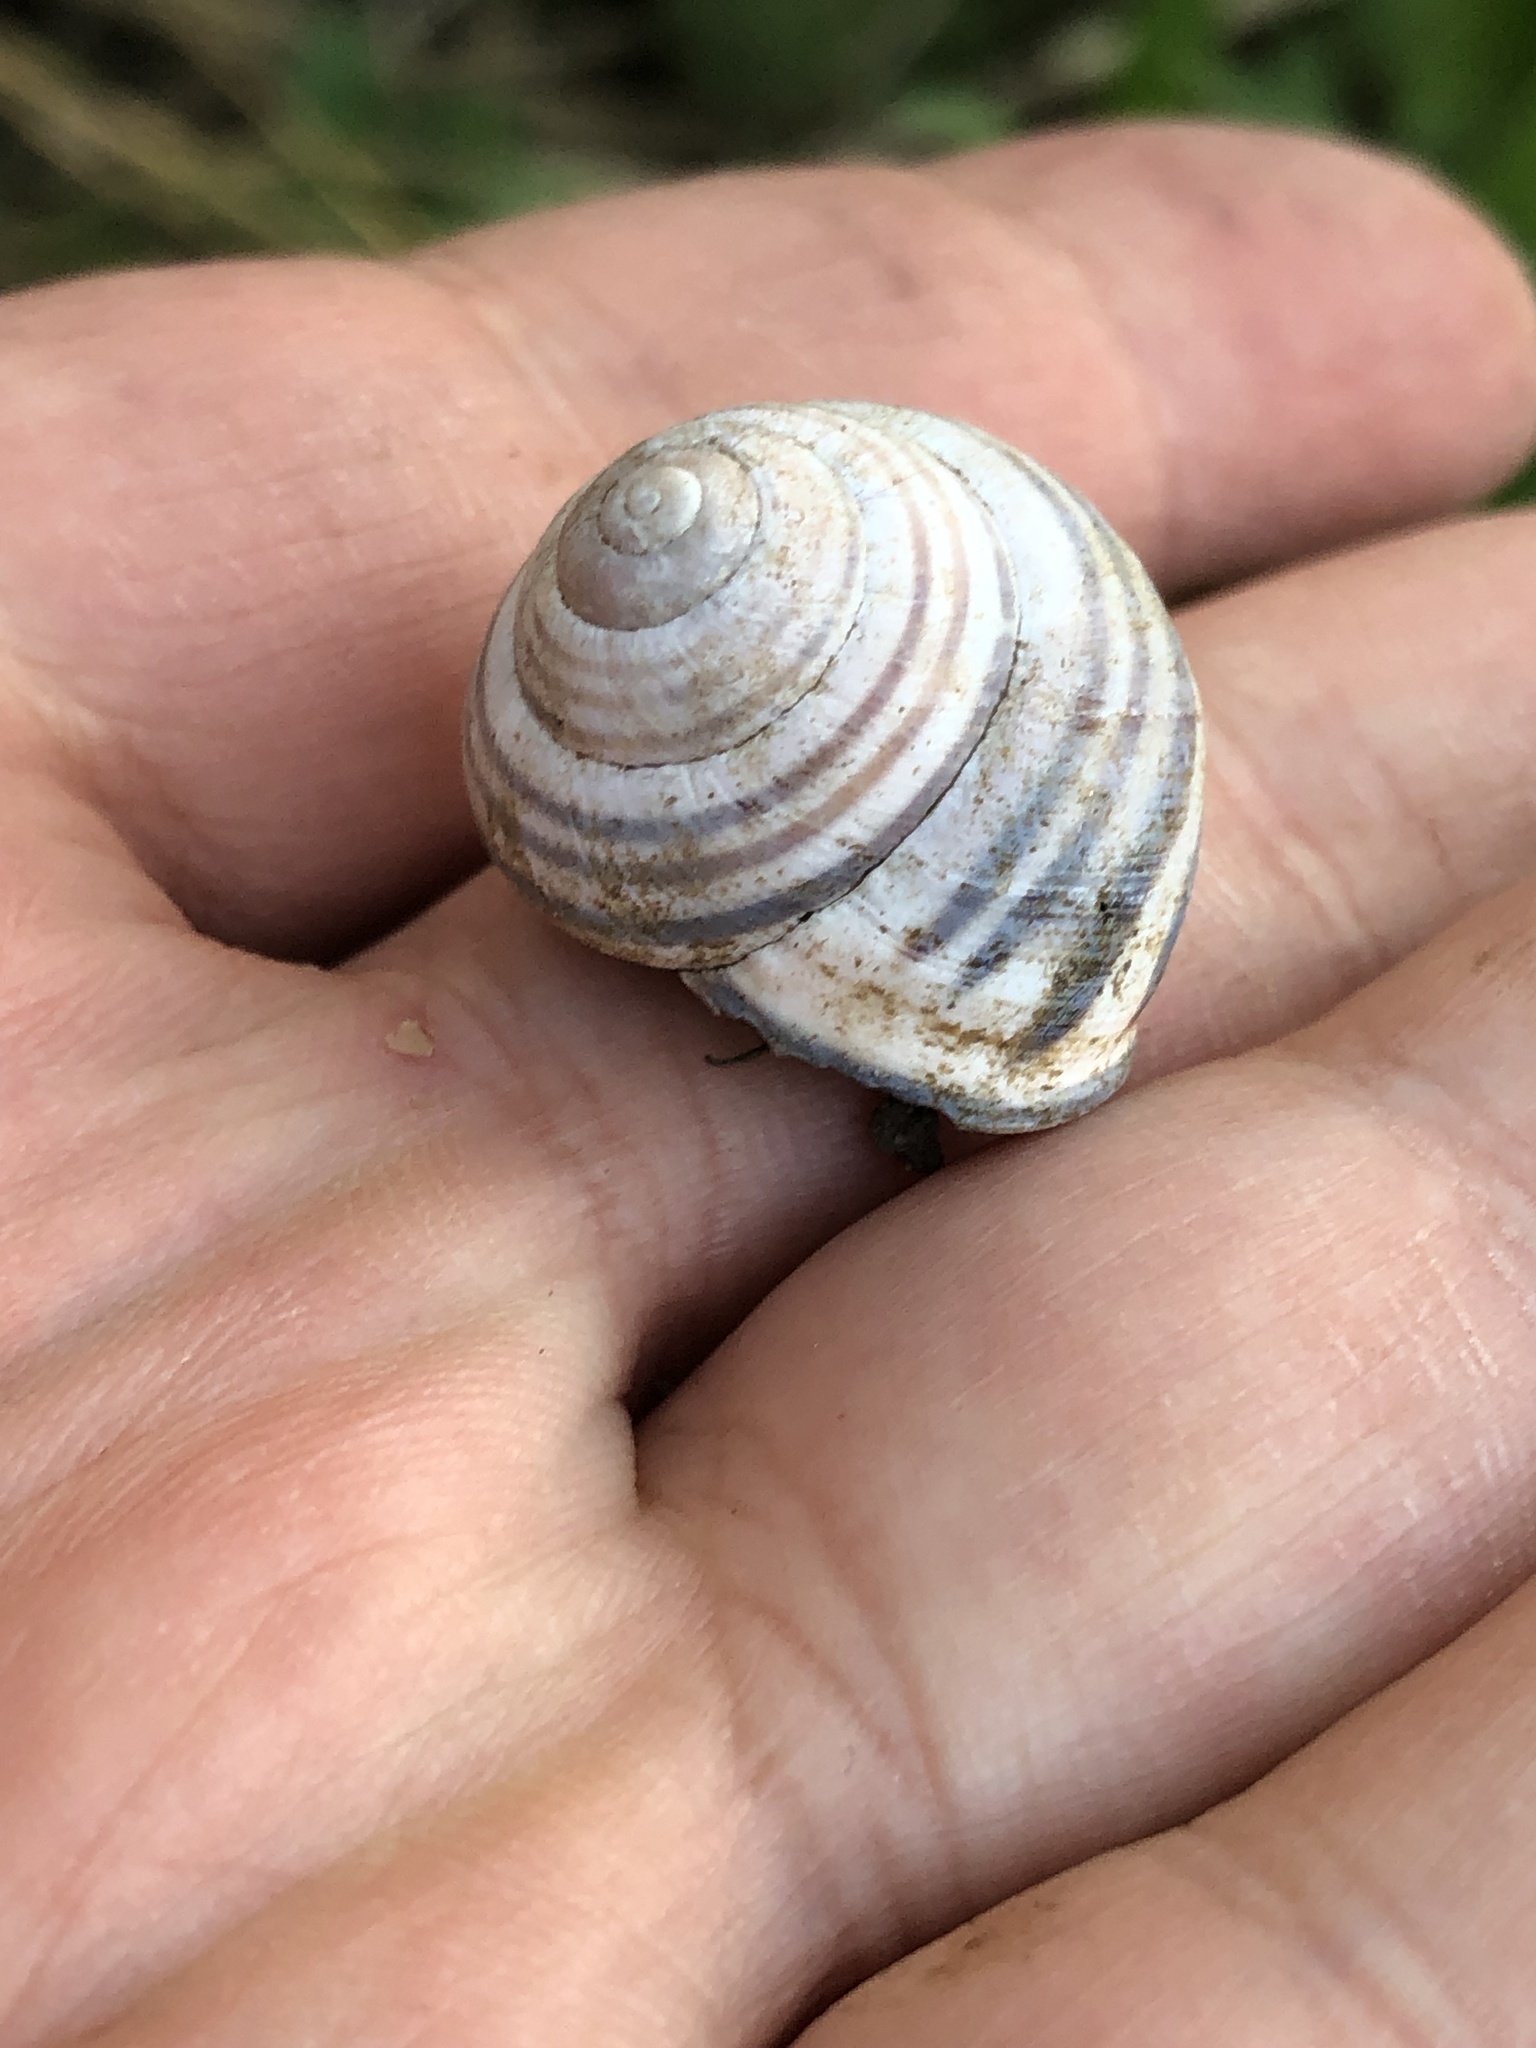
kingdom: Animalia
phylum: Mollusca
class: Gastropoda
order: Stylommatophora
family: Helicidae
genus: Cepaea
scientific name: Cepaea nemoralis
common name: Grovesnail
